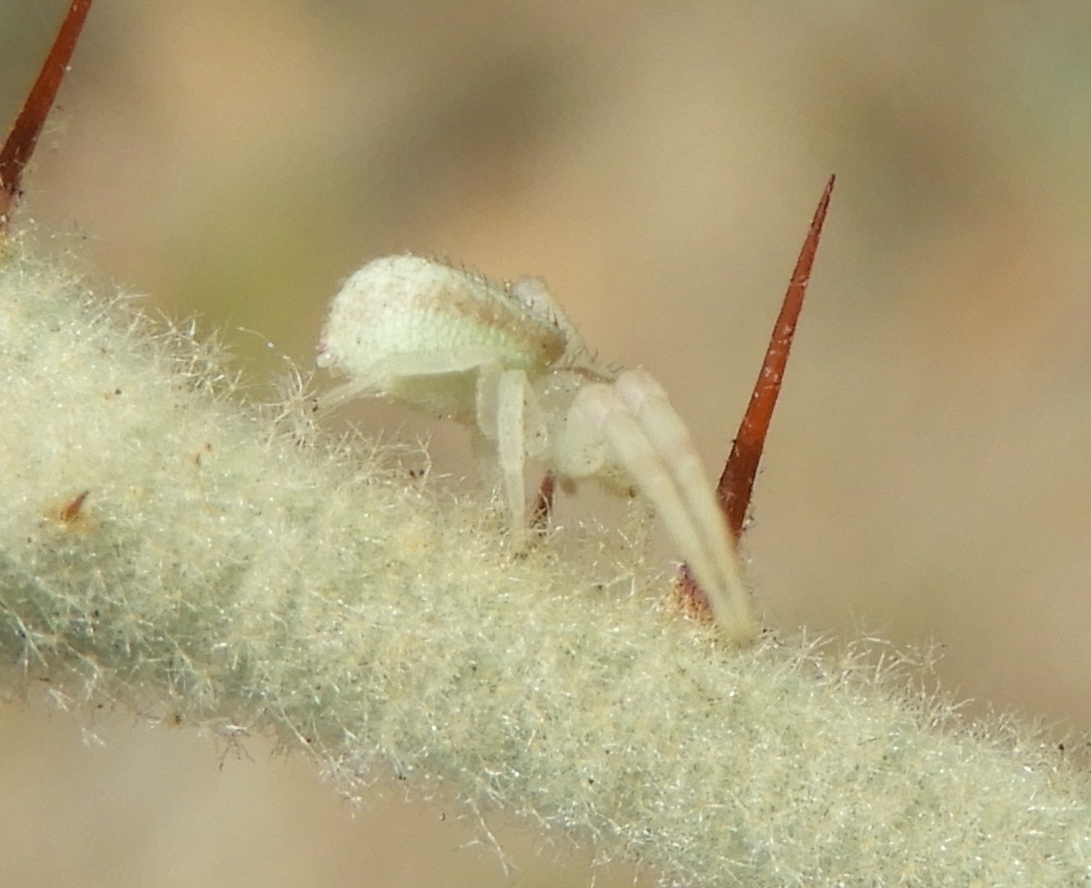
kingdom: Animalia
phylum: Arthropoda
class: Arachnida
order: Araneae
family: Thomisidae
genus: Mecaphesa
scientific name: Mecaphesa
